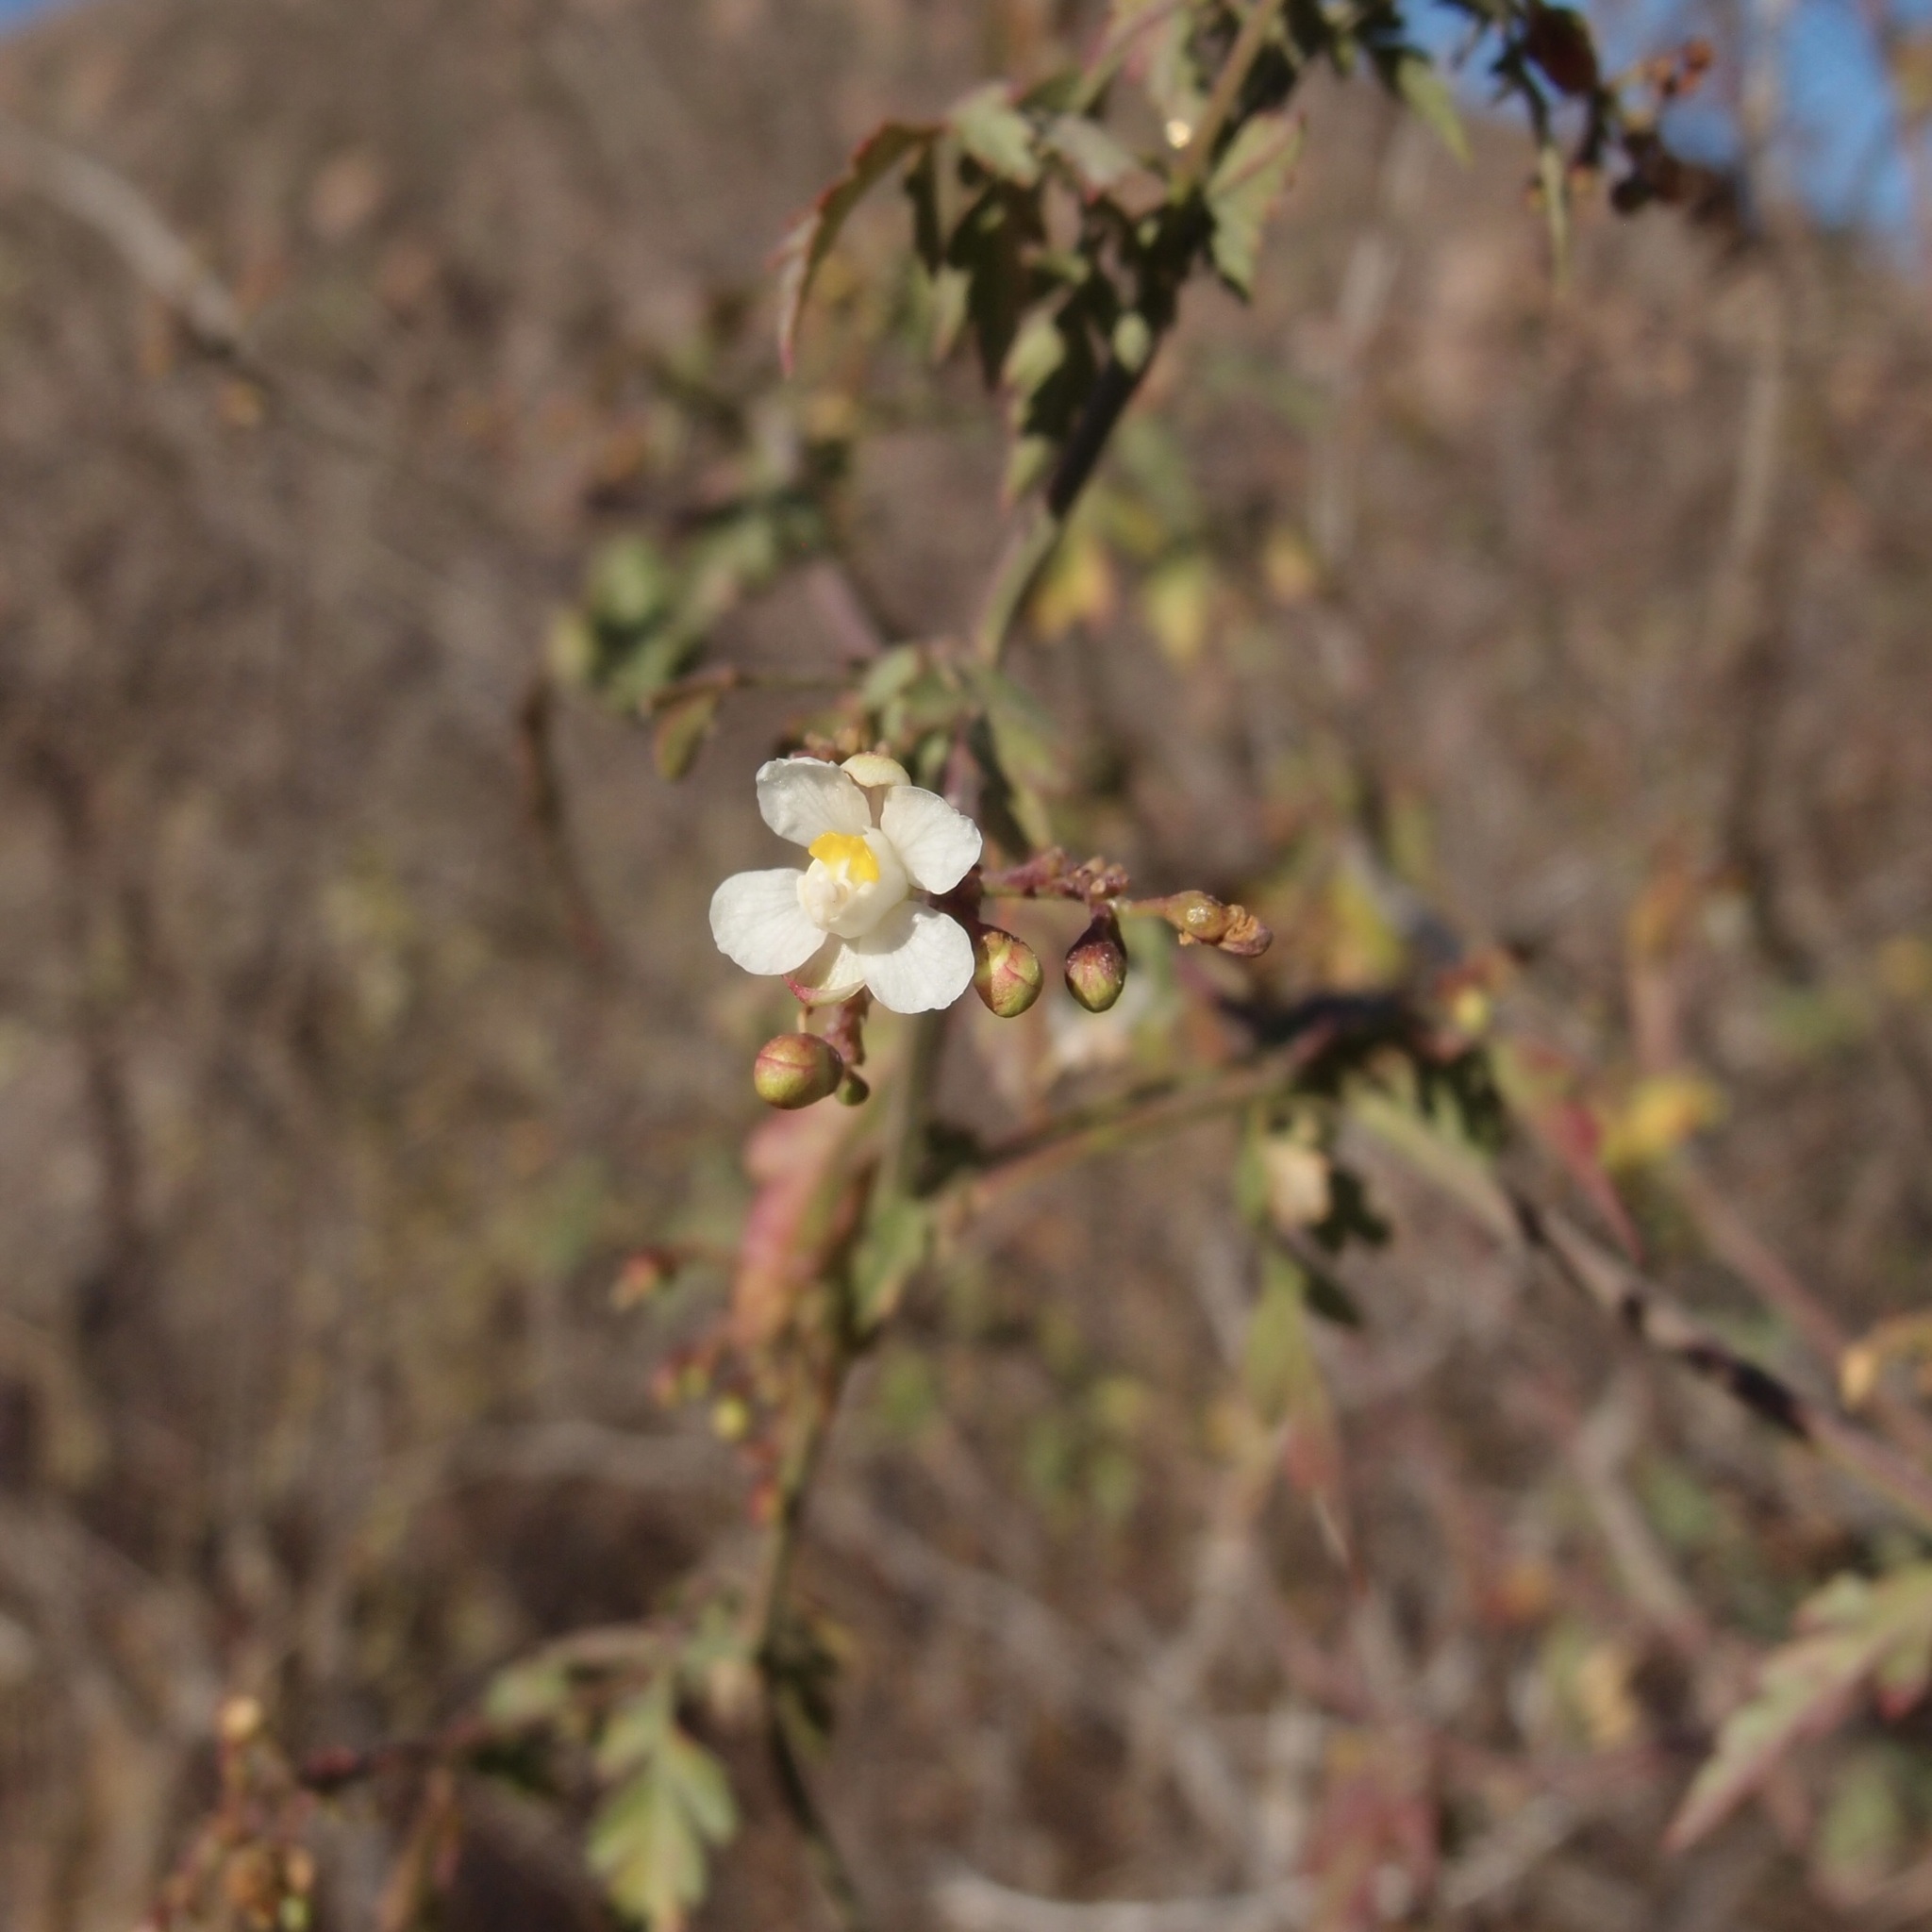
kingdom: Plantae
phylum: Tracheophyta
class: Magnoliopsida
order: Sapindales
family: Sapindaceae
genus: Cardiospermum
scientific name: Cardiospermum corindum
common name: Faux persil
